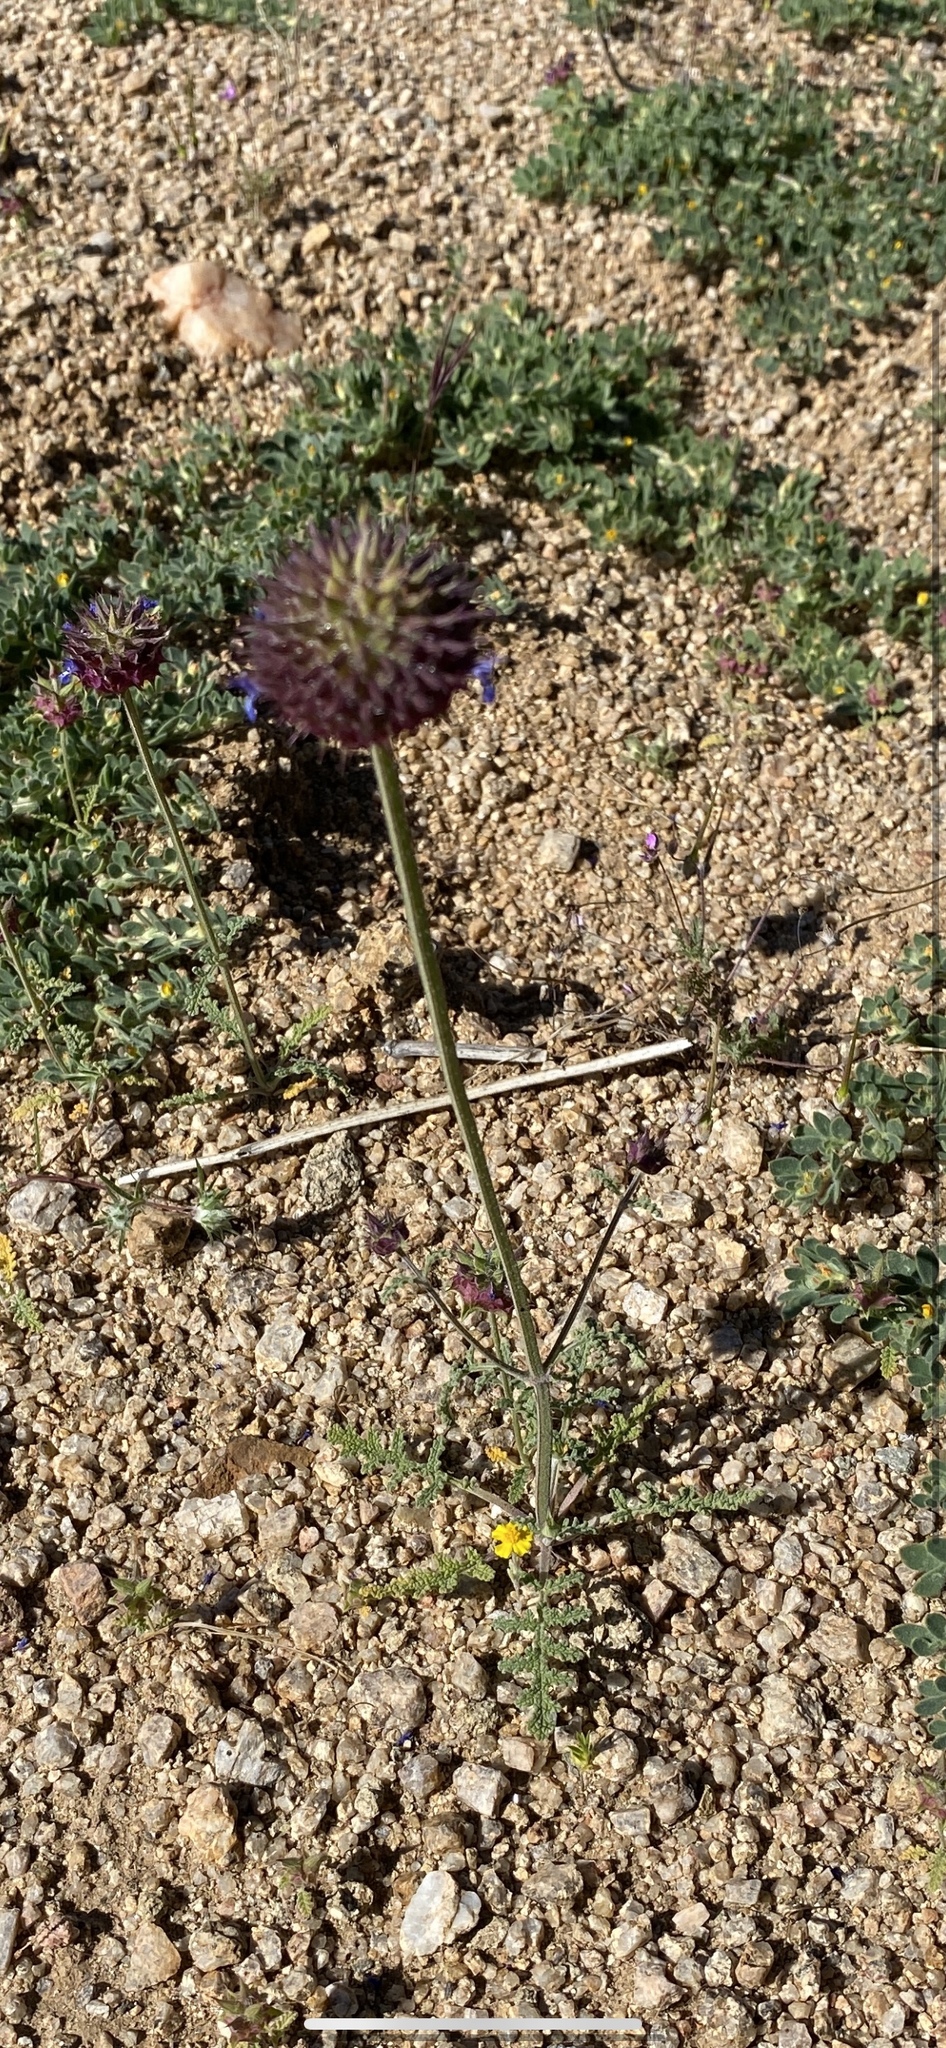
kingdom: Plantae
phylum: Tracheophyta
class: Magnoliopsida
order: Lamiales
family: Lamiaceae
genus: Salvia
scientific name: Salvia columbariae
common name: Chia
